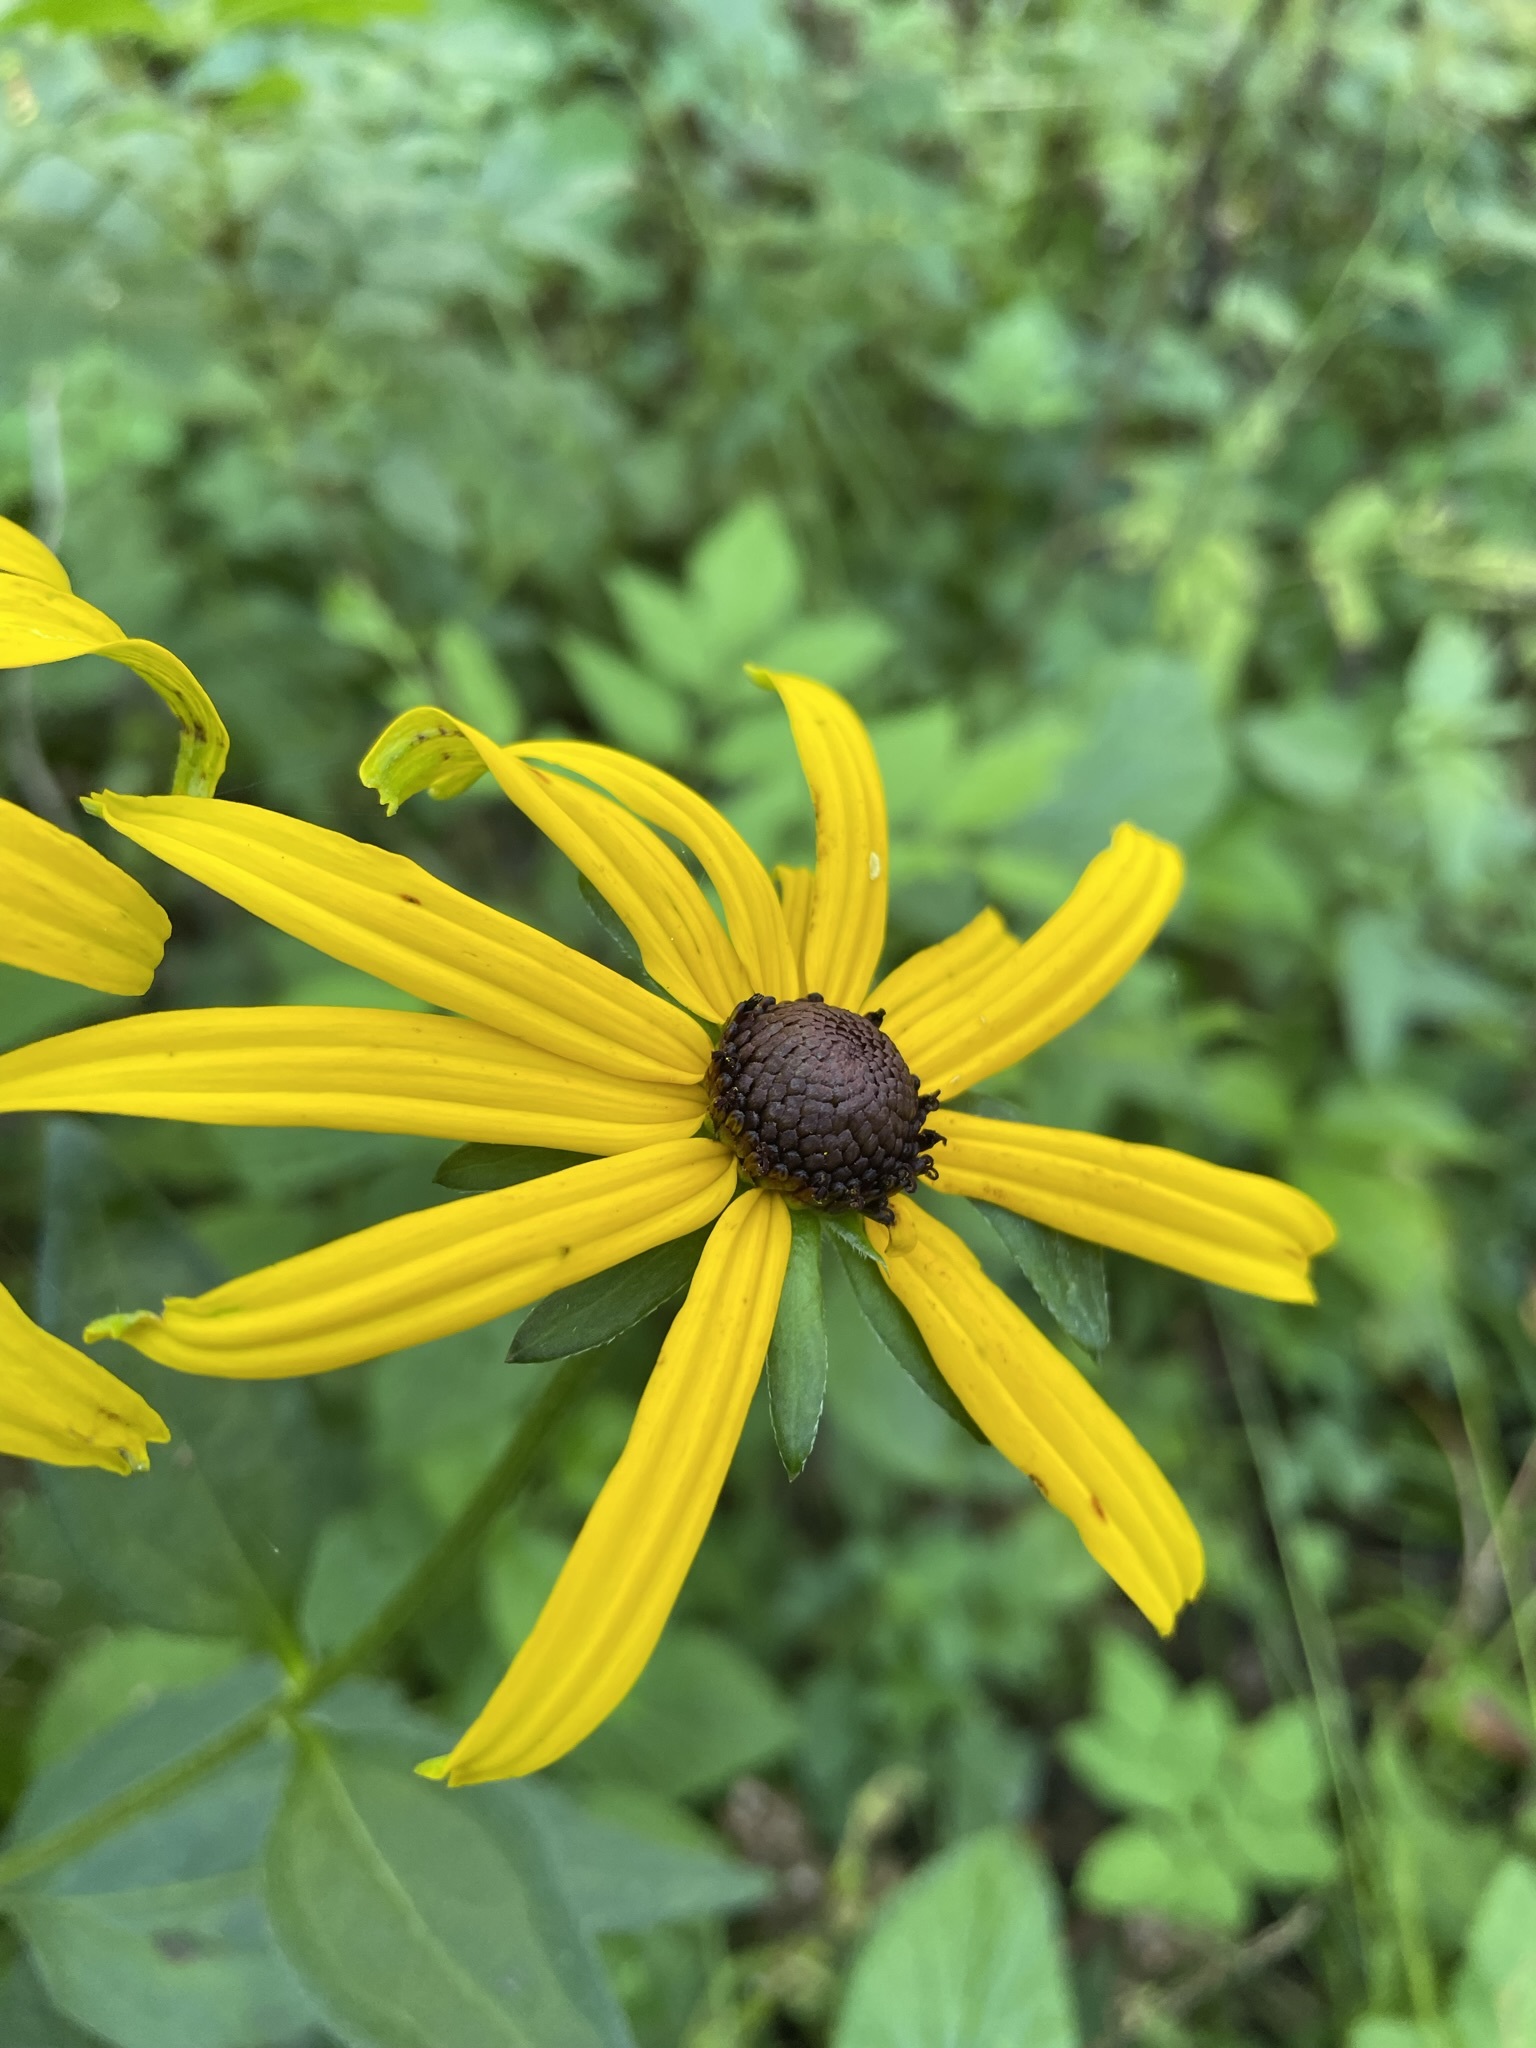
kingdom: Plantae
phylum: Tracheophyta
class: Magnoliopsida
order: Asterales
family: Asteraceae
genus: Rudbeckia
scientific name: Rudbeckia fulgida
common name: Perennial coneflower
